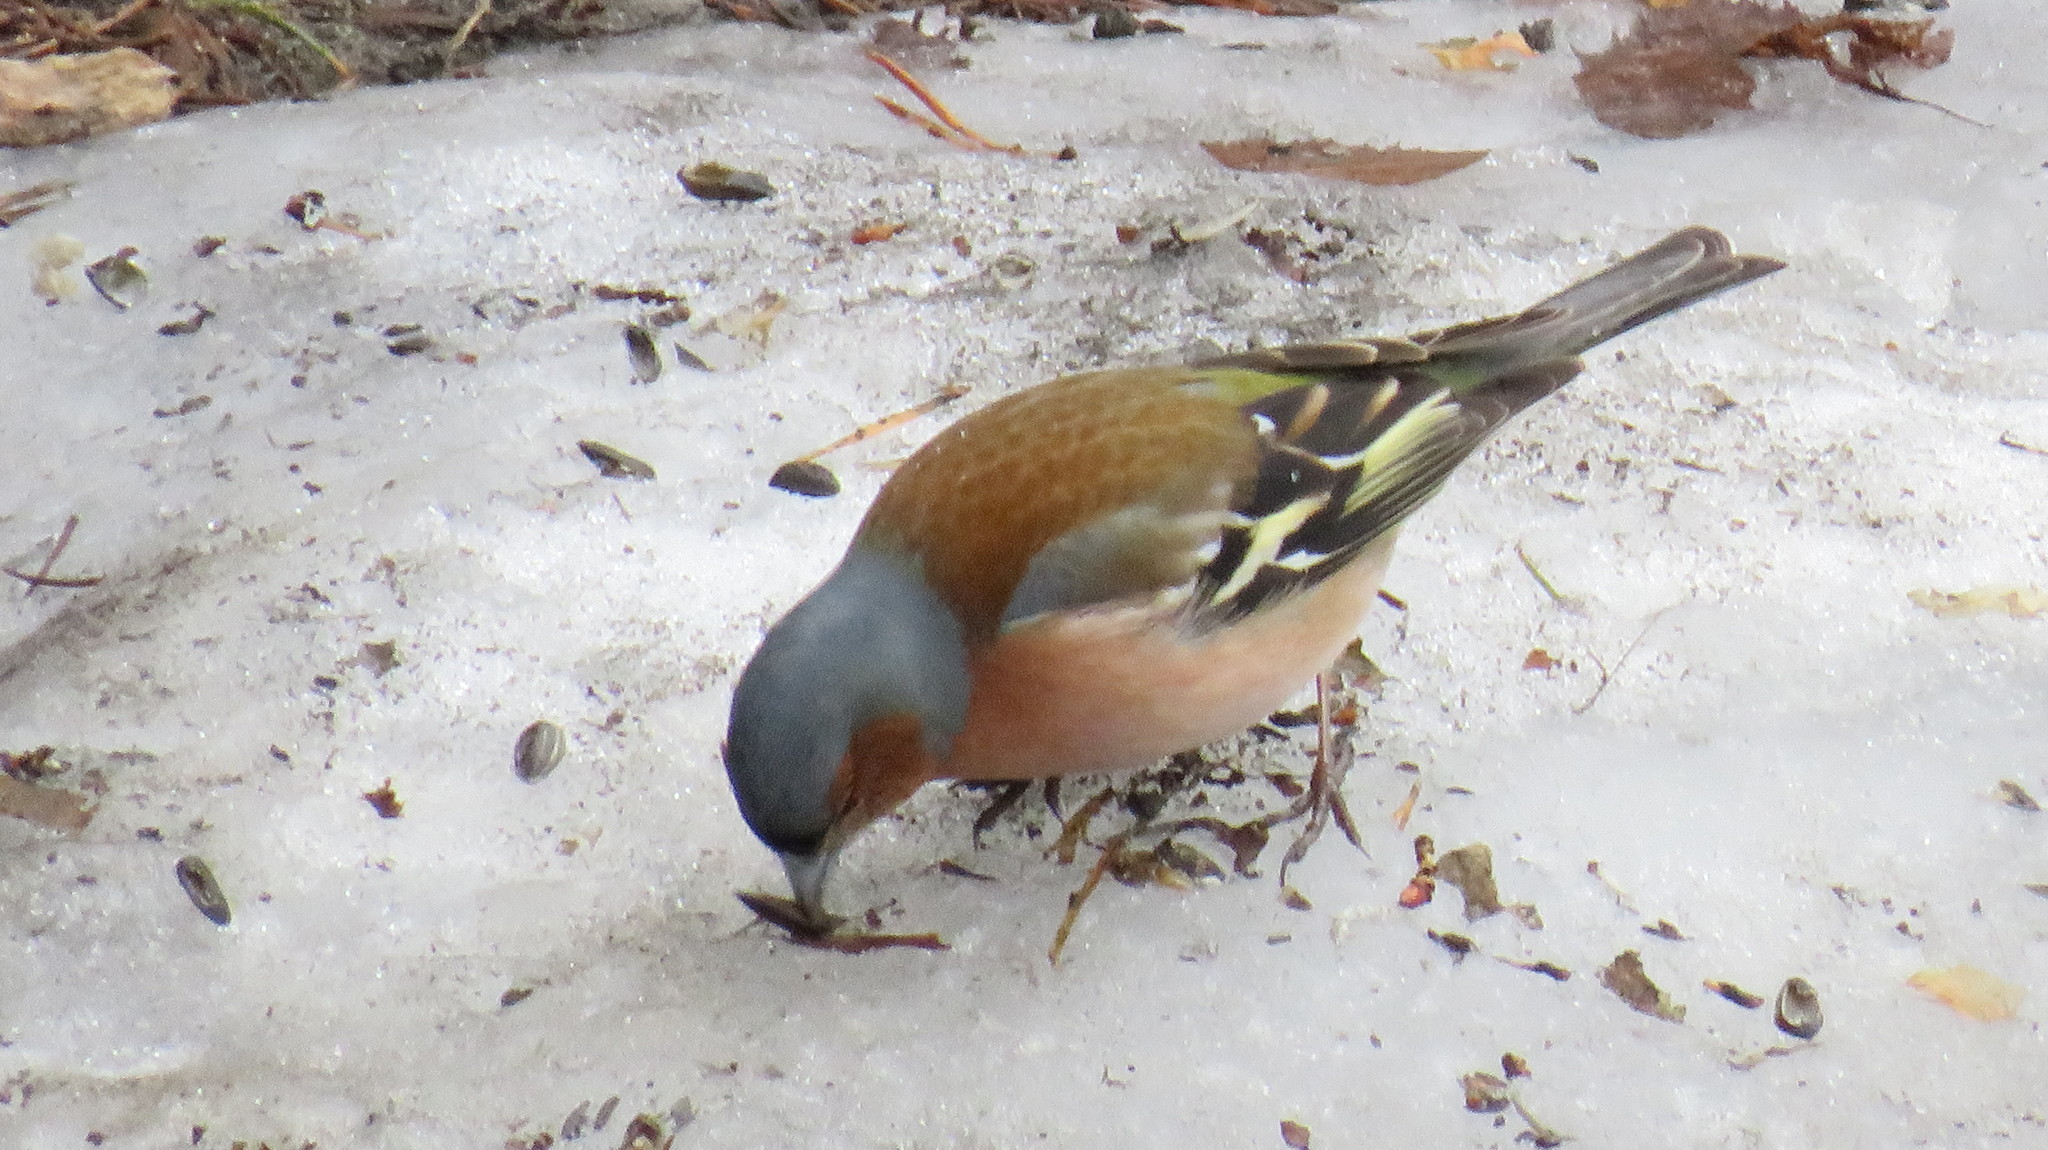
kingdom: Animalia
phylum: Chordata
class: Aves
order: Passeriformes
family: Fringillidae
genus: Fringilla
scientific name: Fringilla coelebs
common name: Common chaffinch
